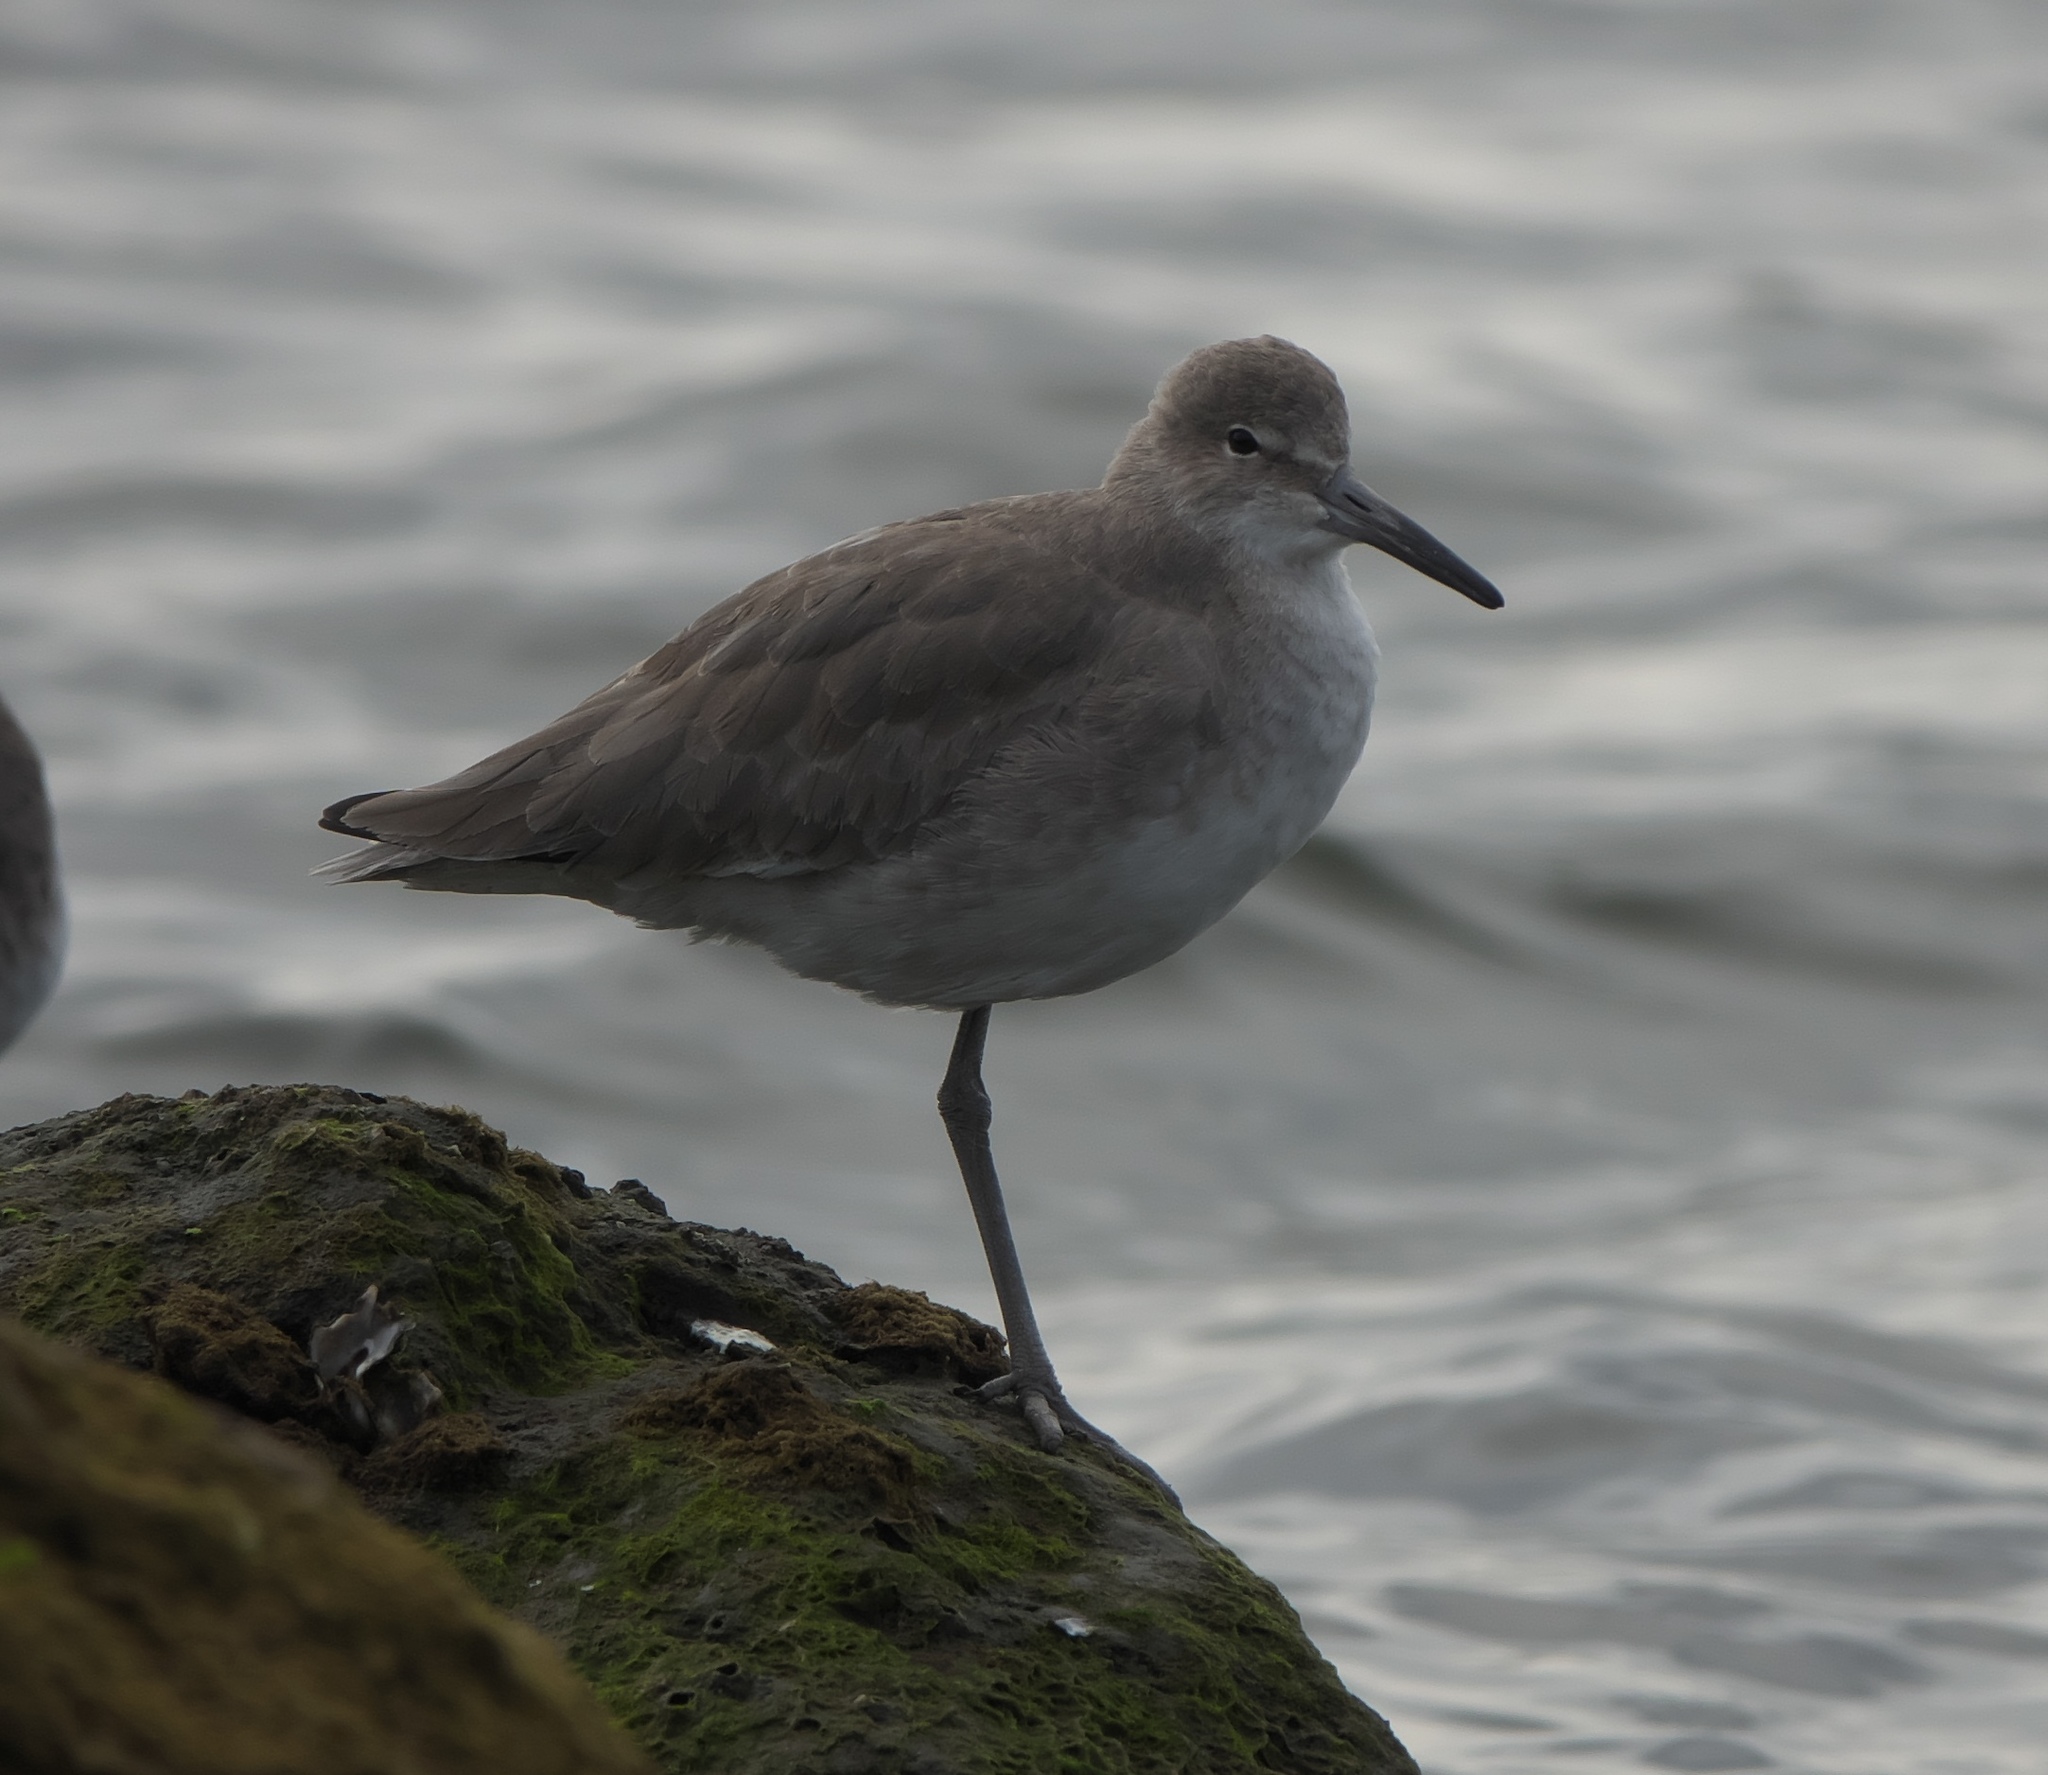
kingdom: Animalia
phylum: Chordata
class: Aves
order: Charadriiformes
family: Scolopacidae
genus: Tringa
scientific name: Tringa semipalmata
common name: Willet
